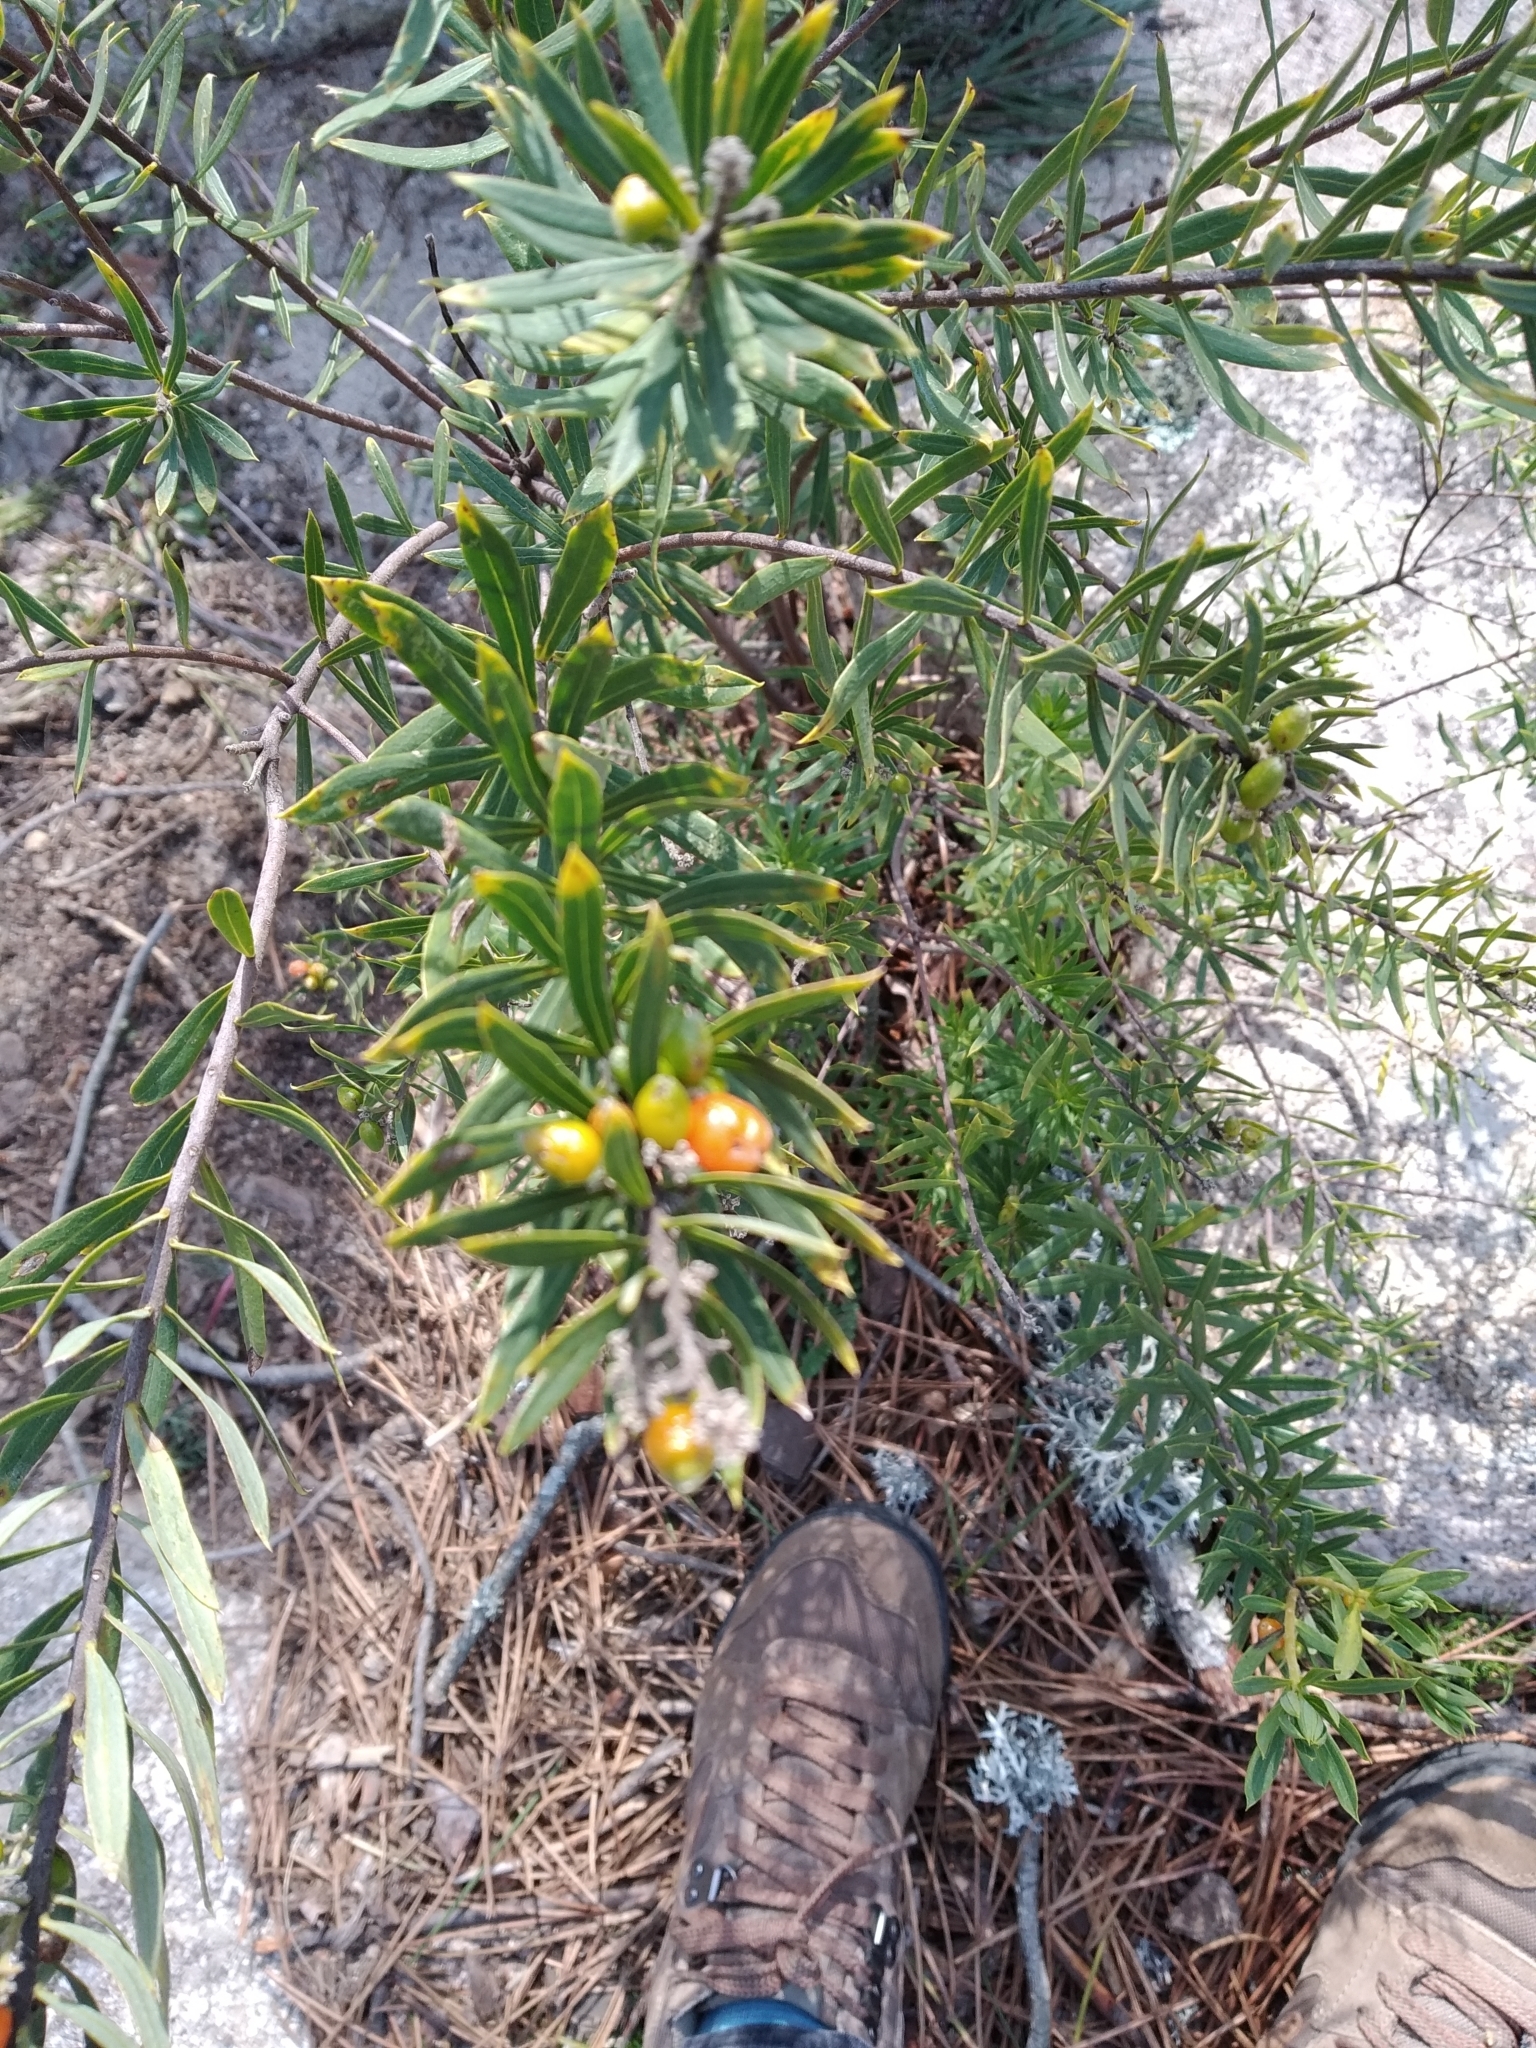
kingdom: Plantae
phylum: Tracheophyta
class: Magnoliopsida
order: Malvales
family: Thymelaeaceae
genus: Daphne
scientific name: Daphne gnidium
